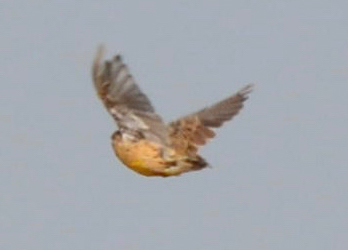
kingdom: Animalia
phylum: Chordata
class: Aves
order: Passeriformes
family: Icteridae
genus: Sturnella
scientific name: Sturnella neglecta
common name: Western meadowlark
